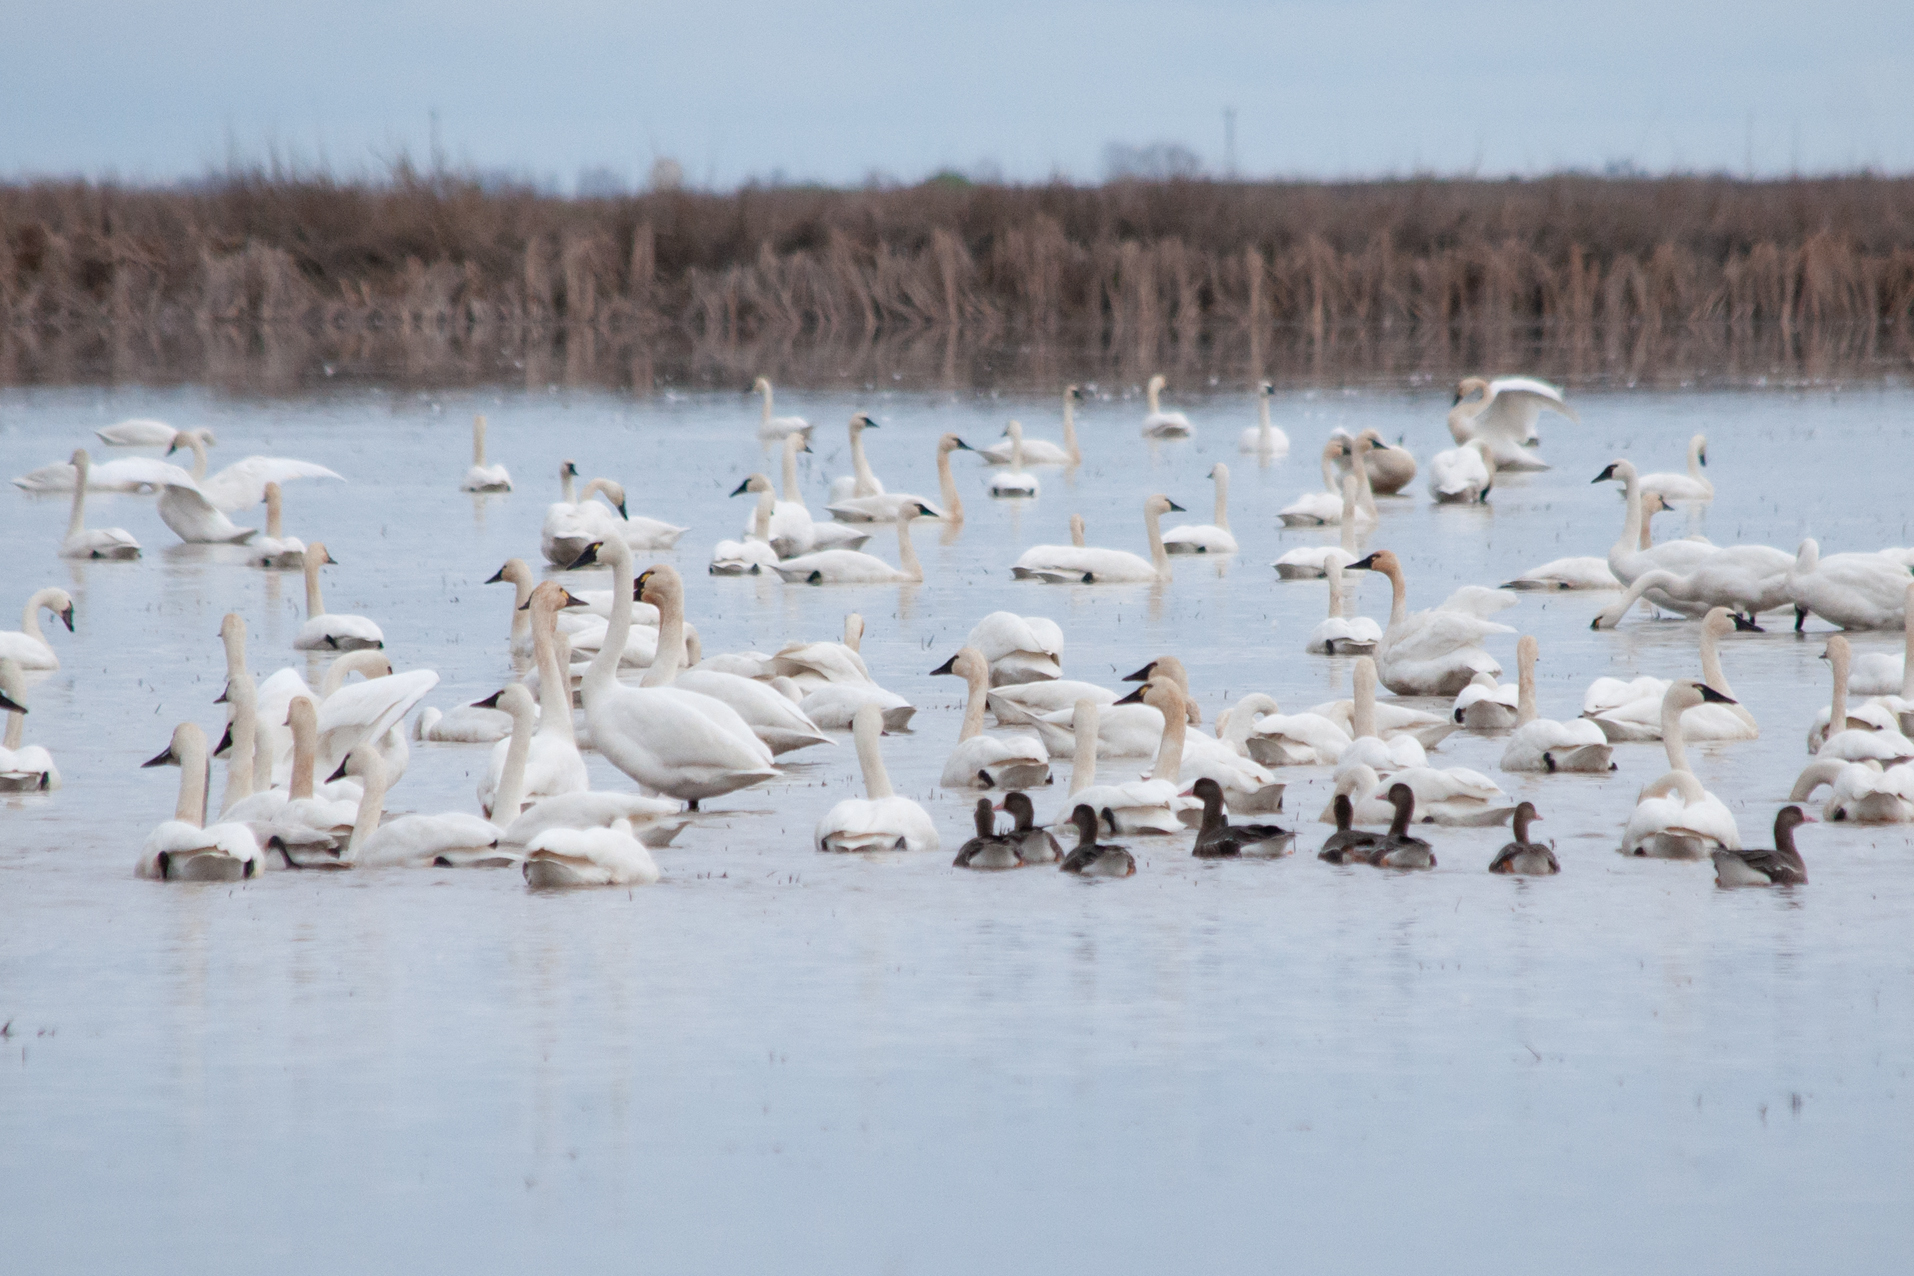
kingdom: Animalia
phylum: Chordata
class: Aves
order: Anseriformes
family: Anatidae
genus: Cygnus
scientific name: Cygnus columbianus
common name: Tundra swan
